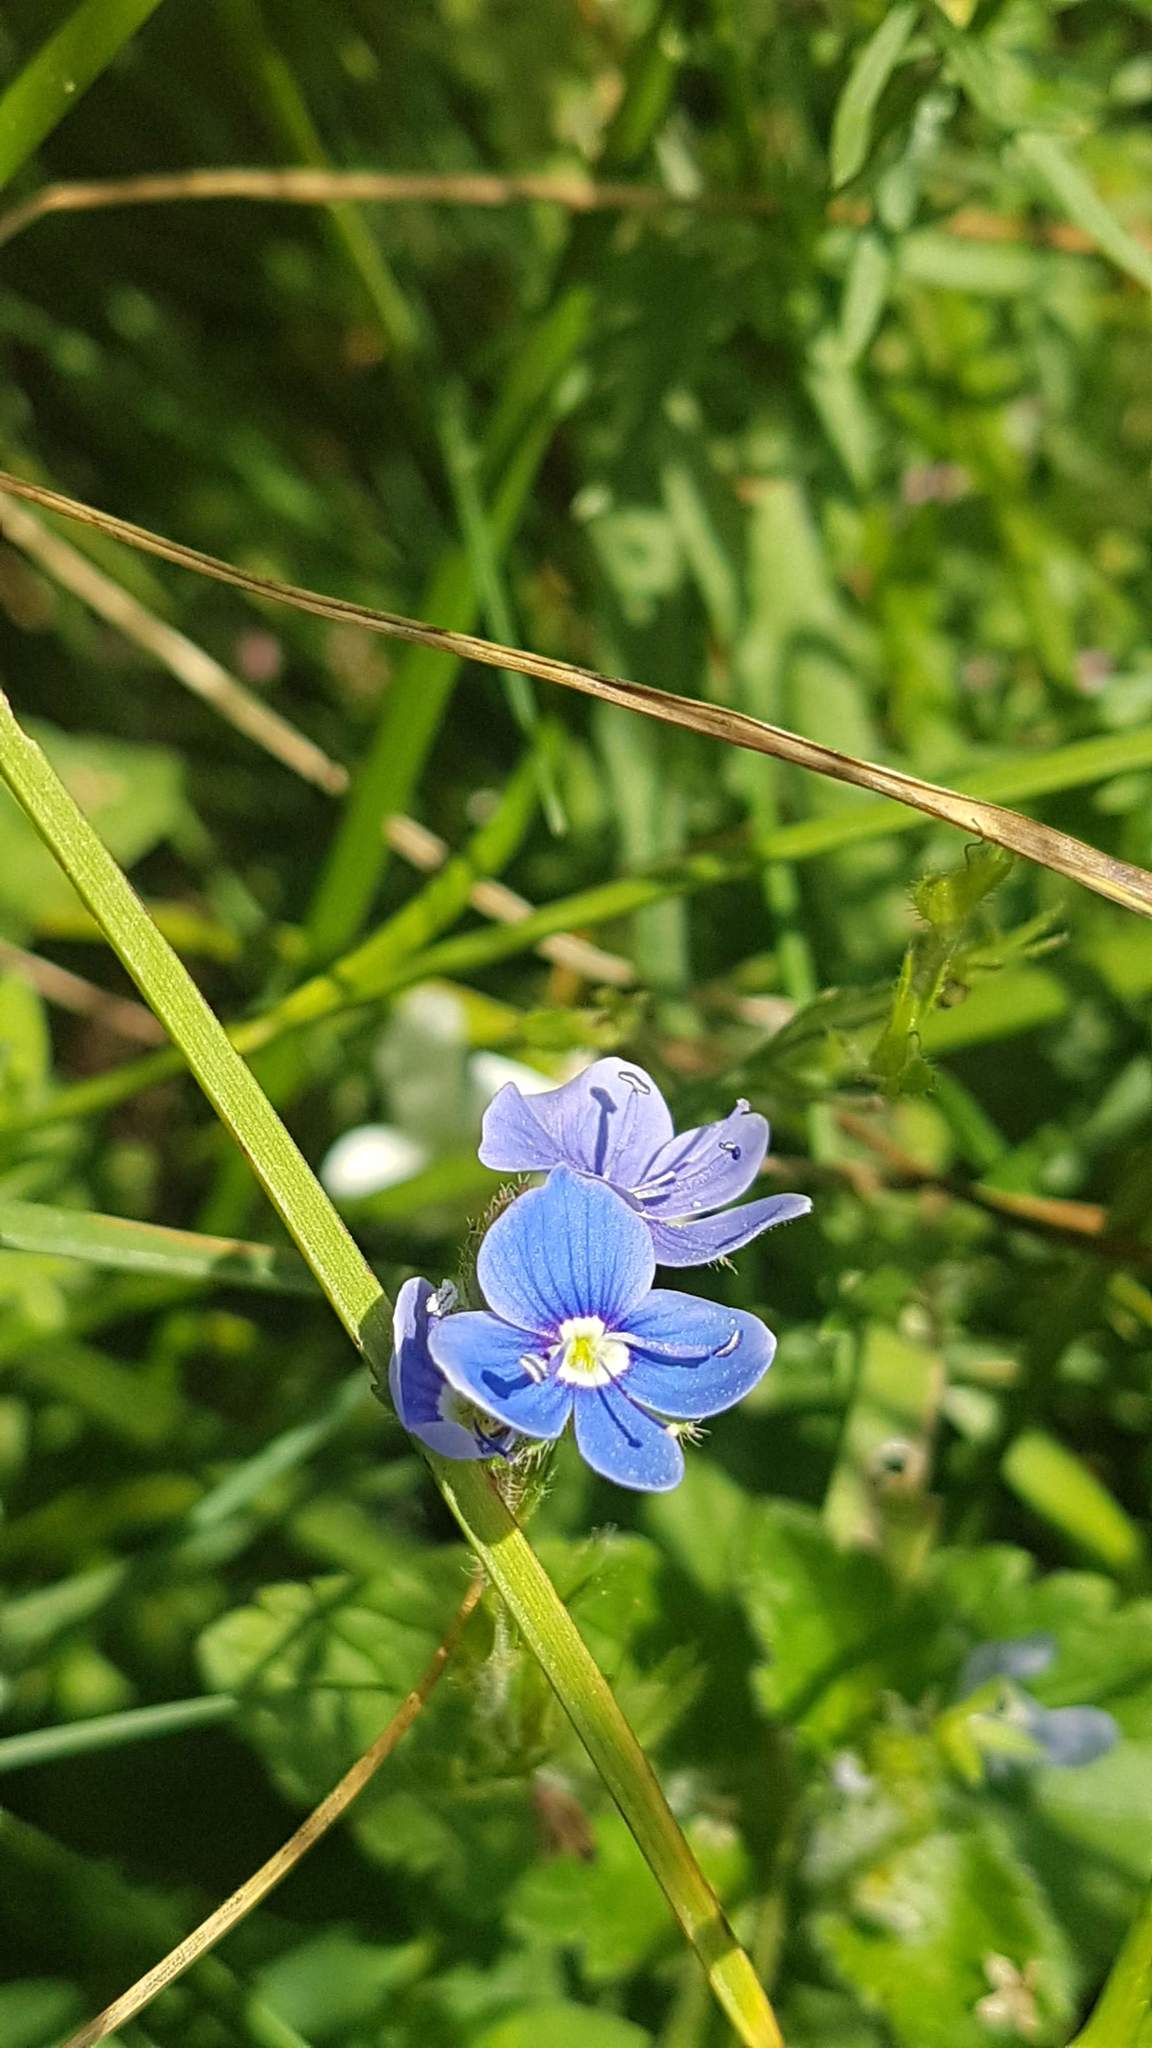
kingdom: Plantae
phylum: Tracheophyta
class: Magnoliopsida
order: Lamiales
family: Plantaginaceae
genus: Veronica
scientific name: Veronica chamaedrys
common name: Germander speedwell
